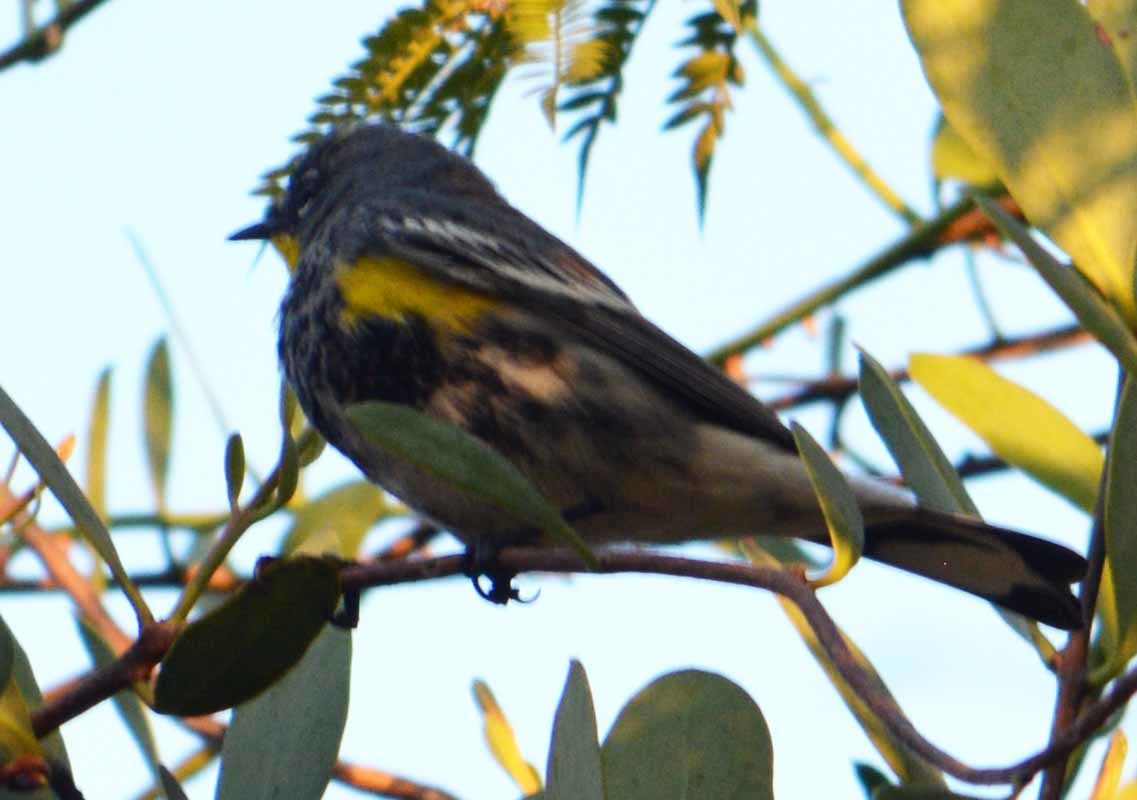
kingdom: Animalia
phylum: Chordata
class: Aves
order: Passeriformes
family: Parulidae
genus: Setophaga
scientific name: Setophaga auduboni
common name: Audubon's warbler
